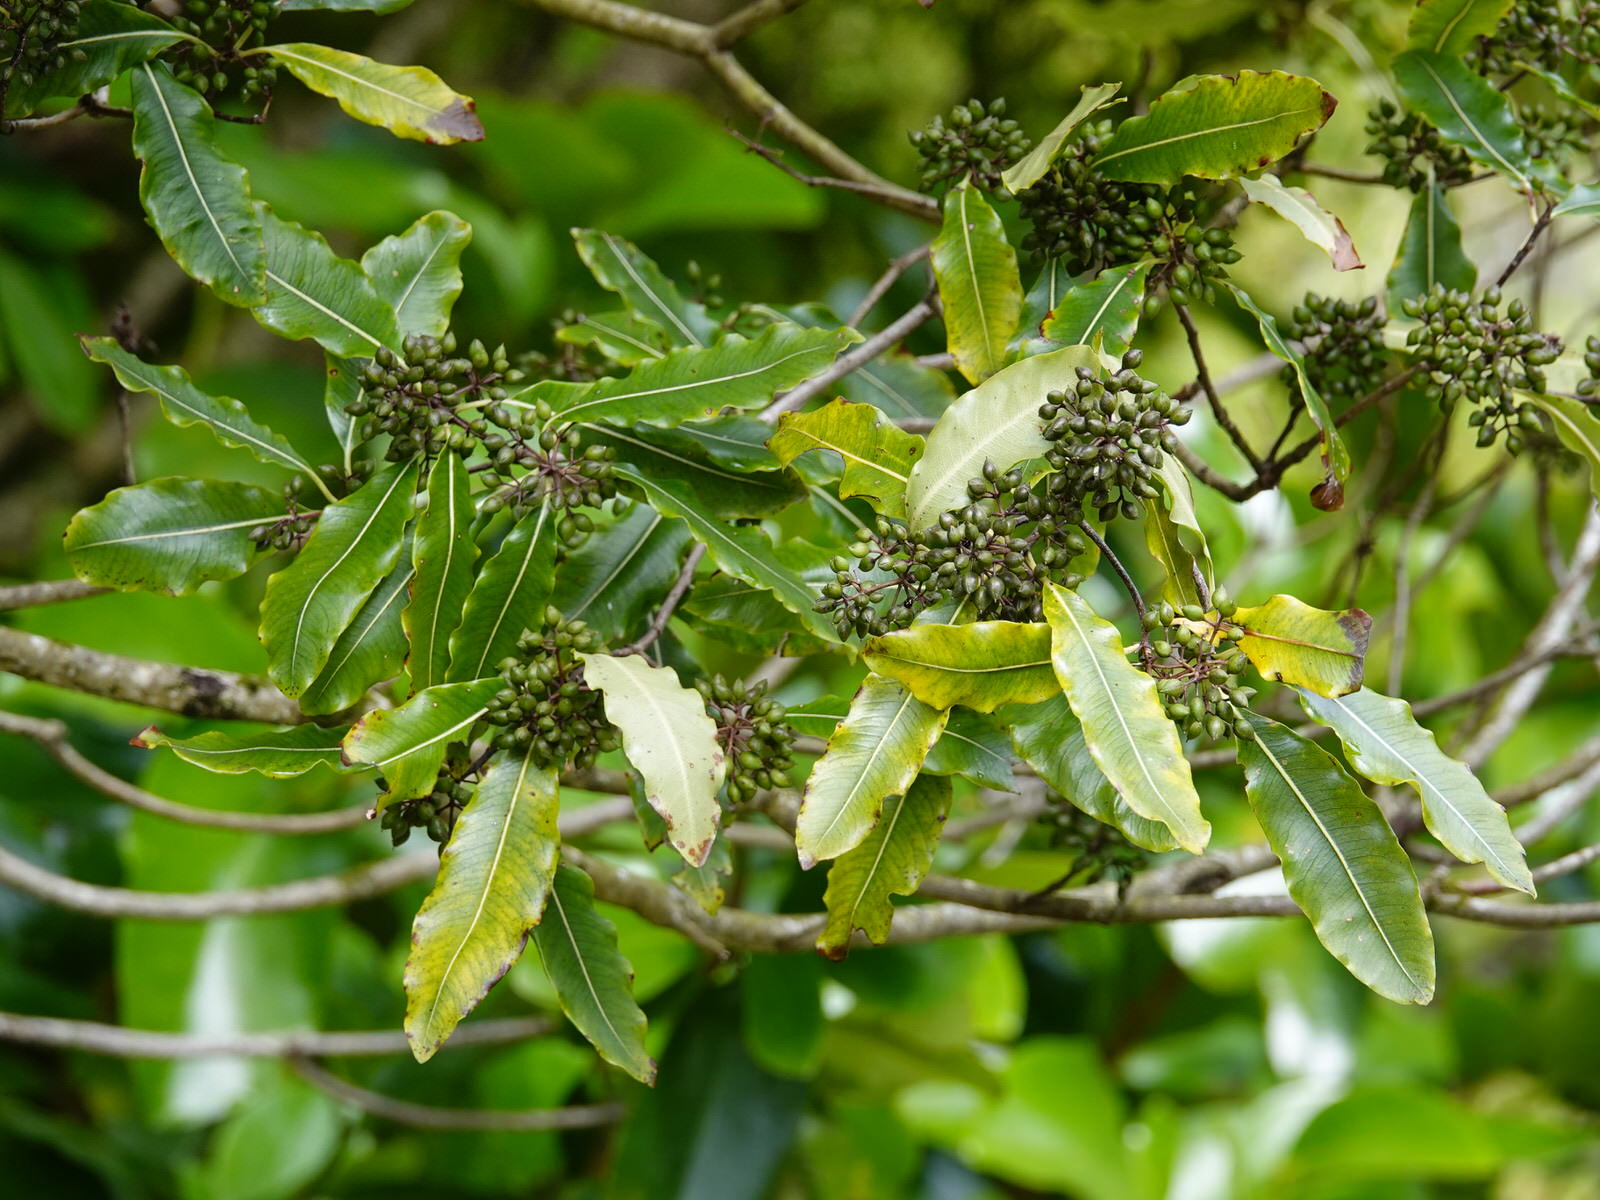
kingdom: Plantae
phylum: Tracheophyta
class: Magnoliopsida
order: Apiales
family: Pittosporaceae
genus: Pittosporum
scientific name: Pittosporum eugenioides
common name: Lemonwood
